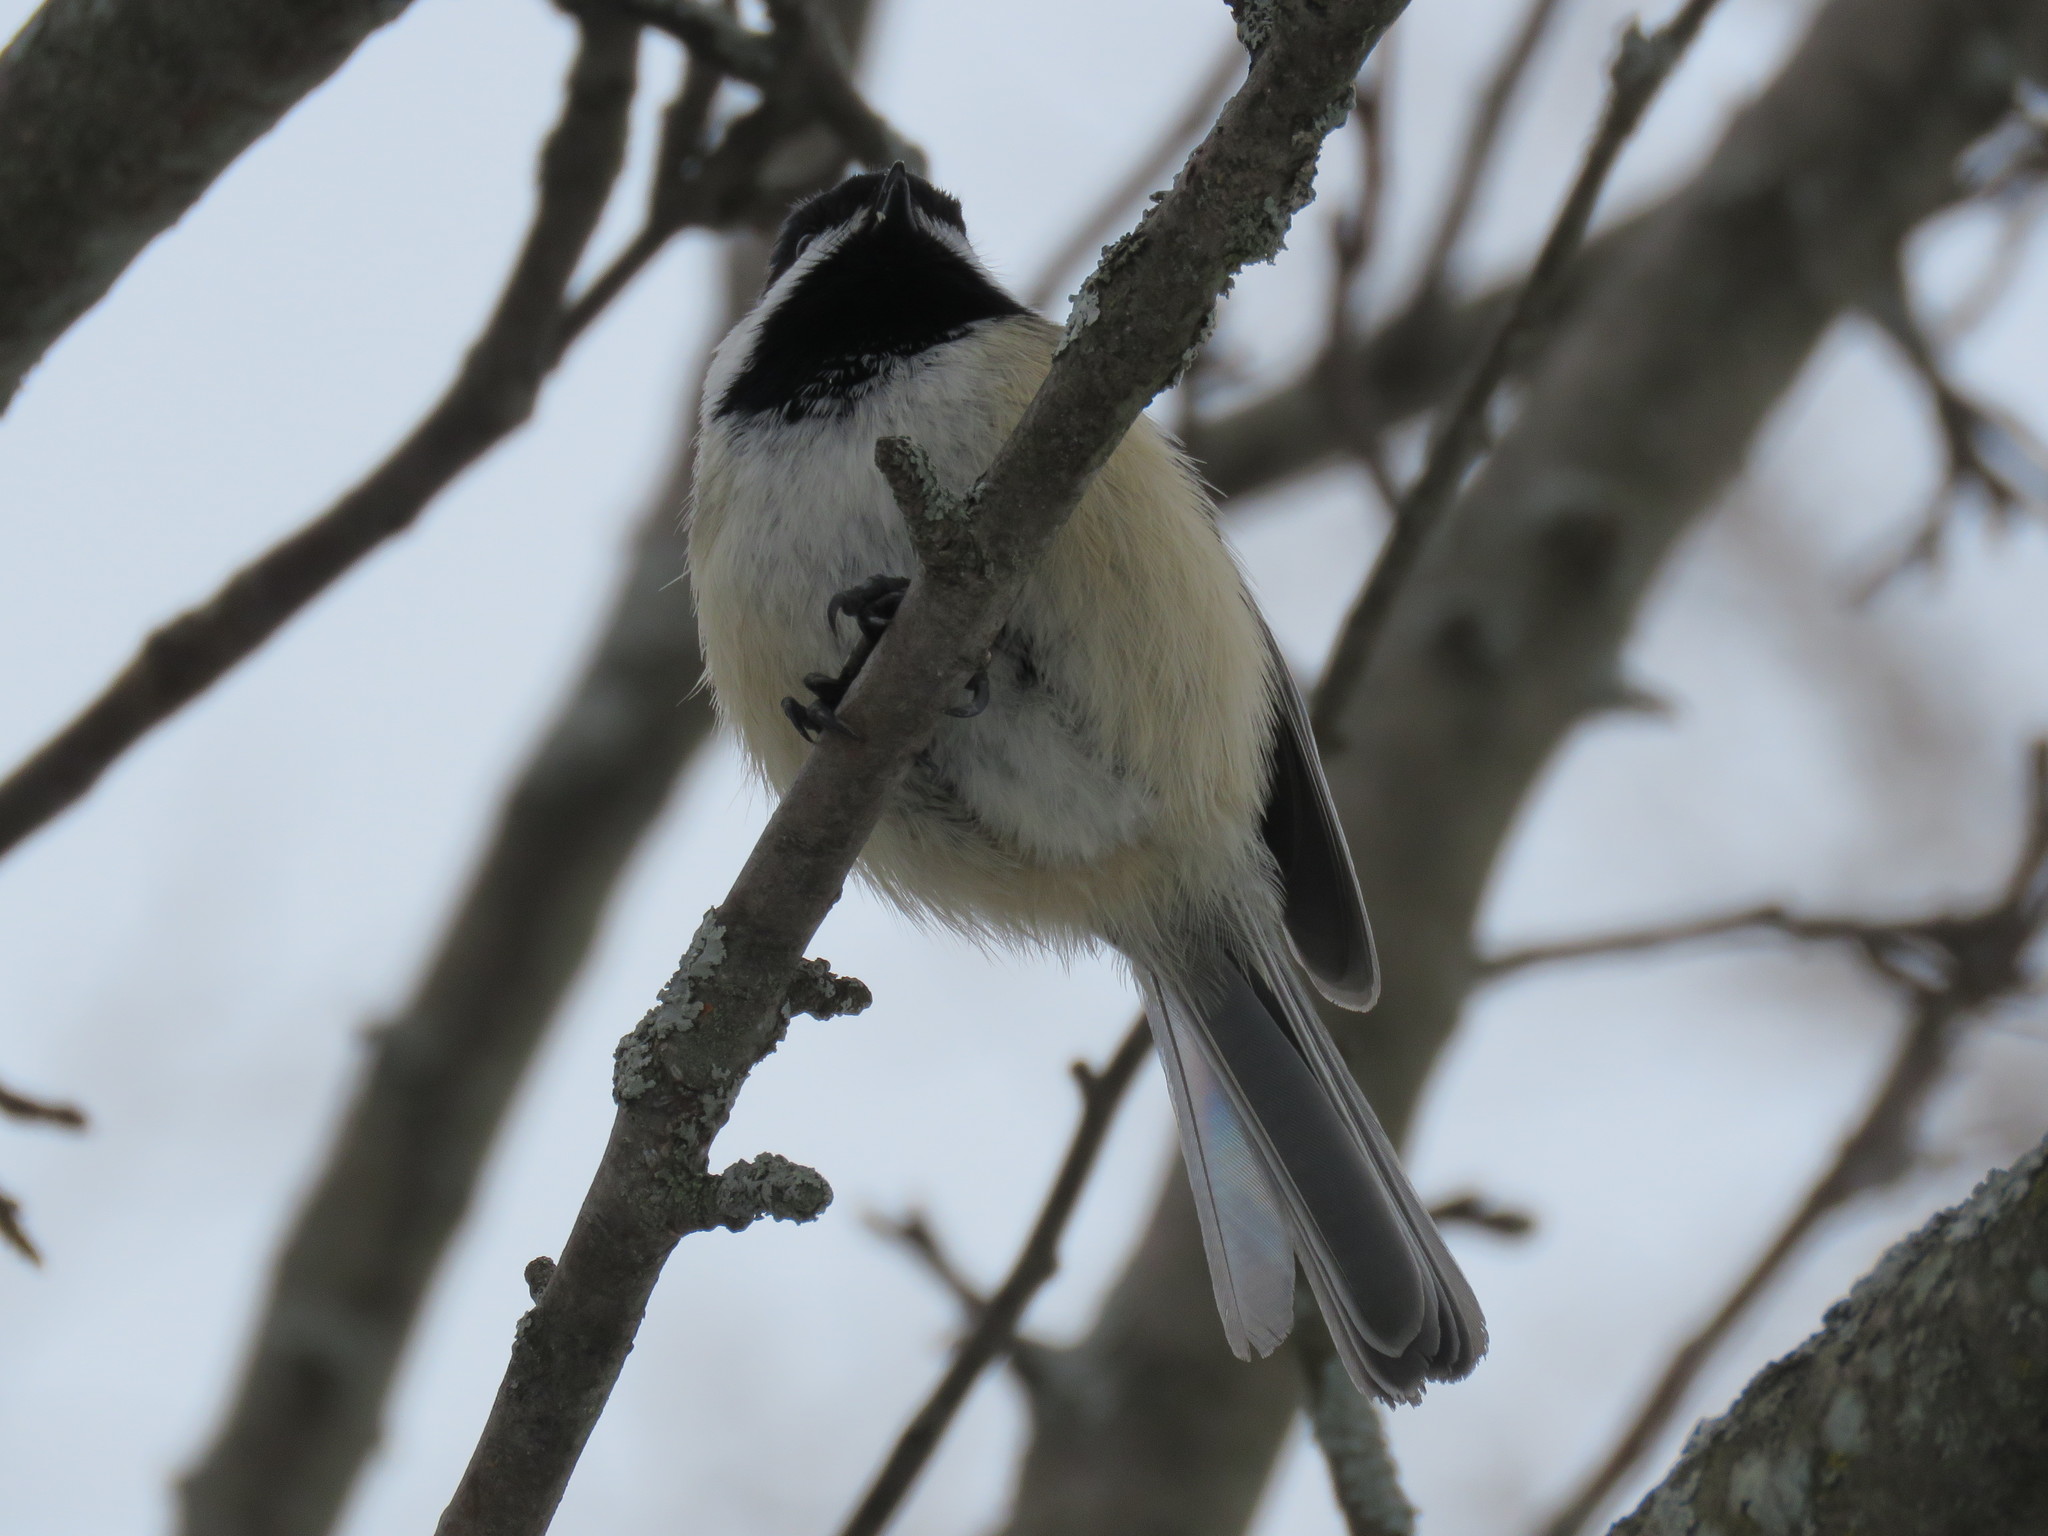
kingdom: Animalia
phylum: Chordata
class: Aves
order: Passeriformes
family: Paridae
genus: Poecile
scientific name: Poecile atricapillus
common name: Black-capped chickadee
